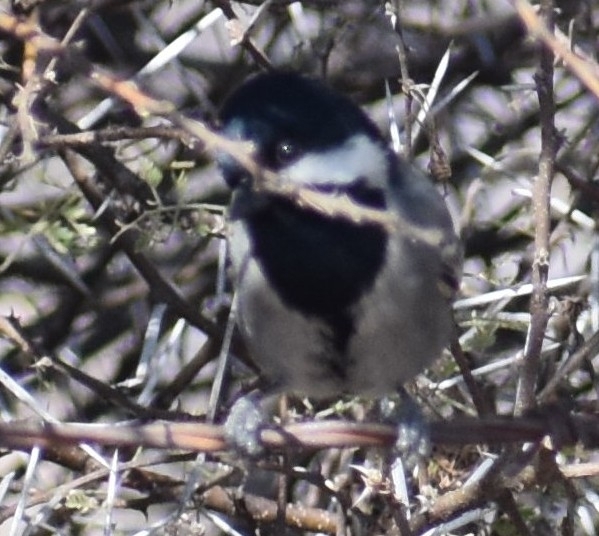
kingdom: Animalia
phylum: Chordata
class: Aves
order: Passeriformes
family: Paridae
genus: Parus
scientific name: Parus cinerascens
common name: Ashy tit
